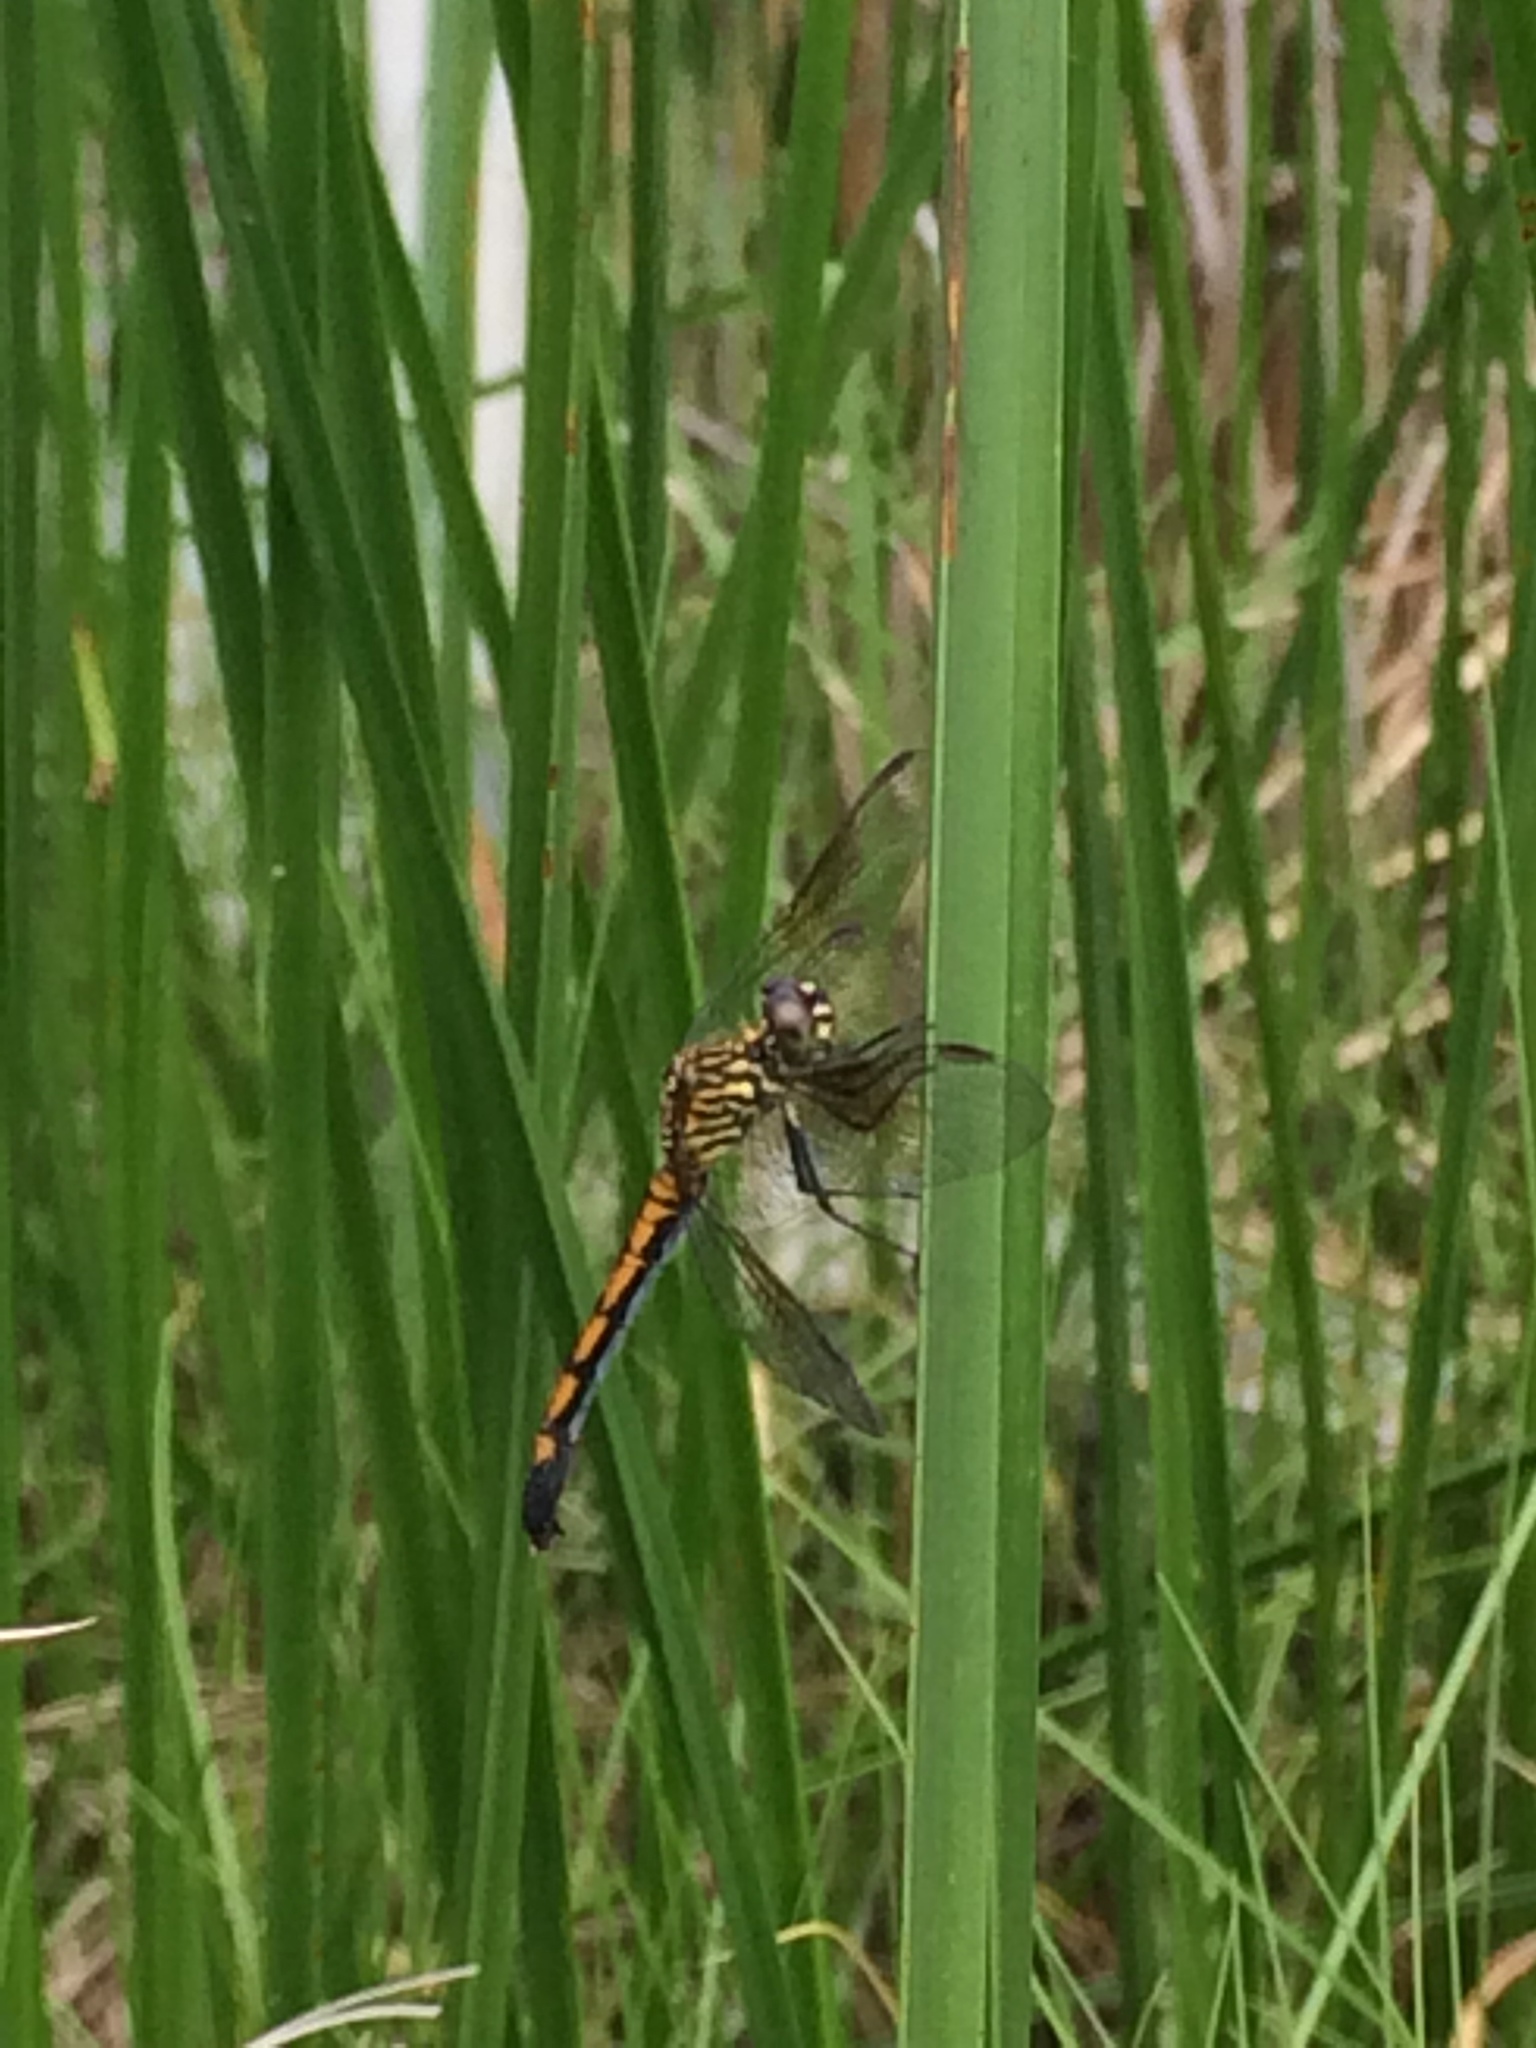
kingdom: Animalia
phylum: Arthropoda
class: Insecta
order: Odonata
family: Libellulidae
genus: Erythrodiplax
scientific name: Erythrodiplax berenice
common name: Seaside dragonlet
